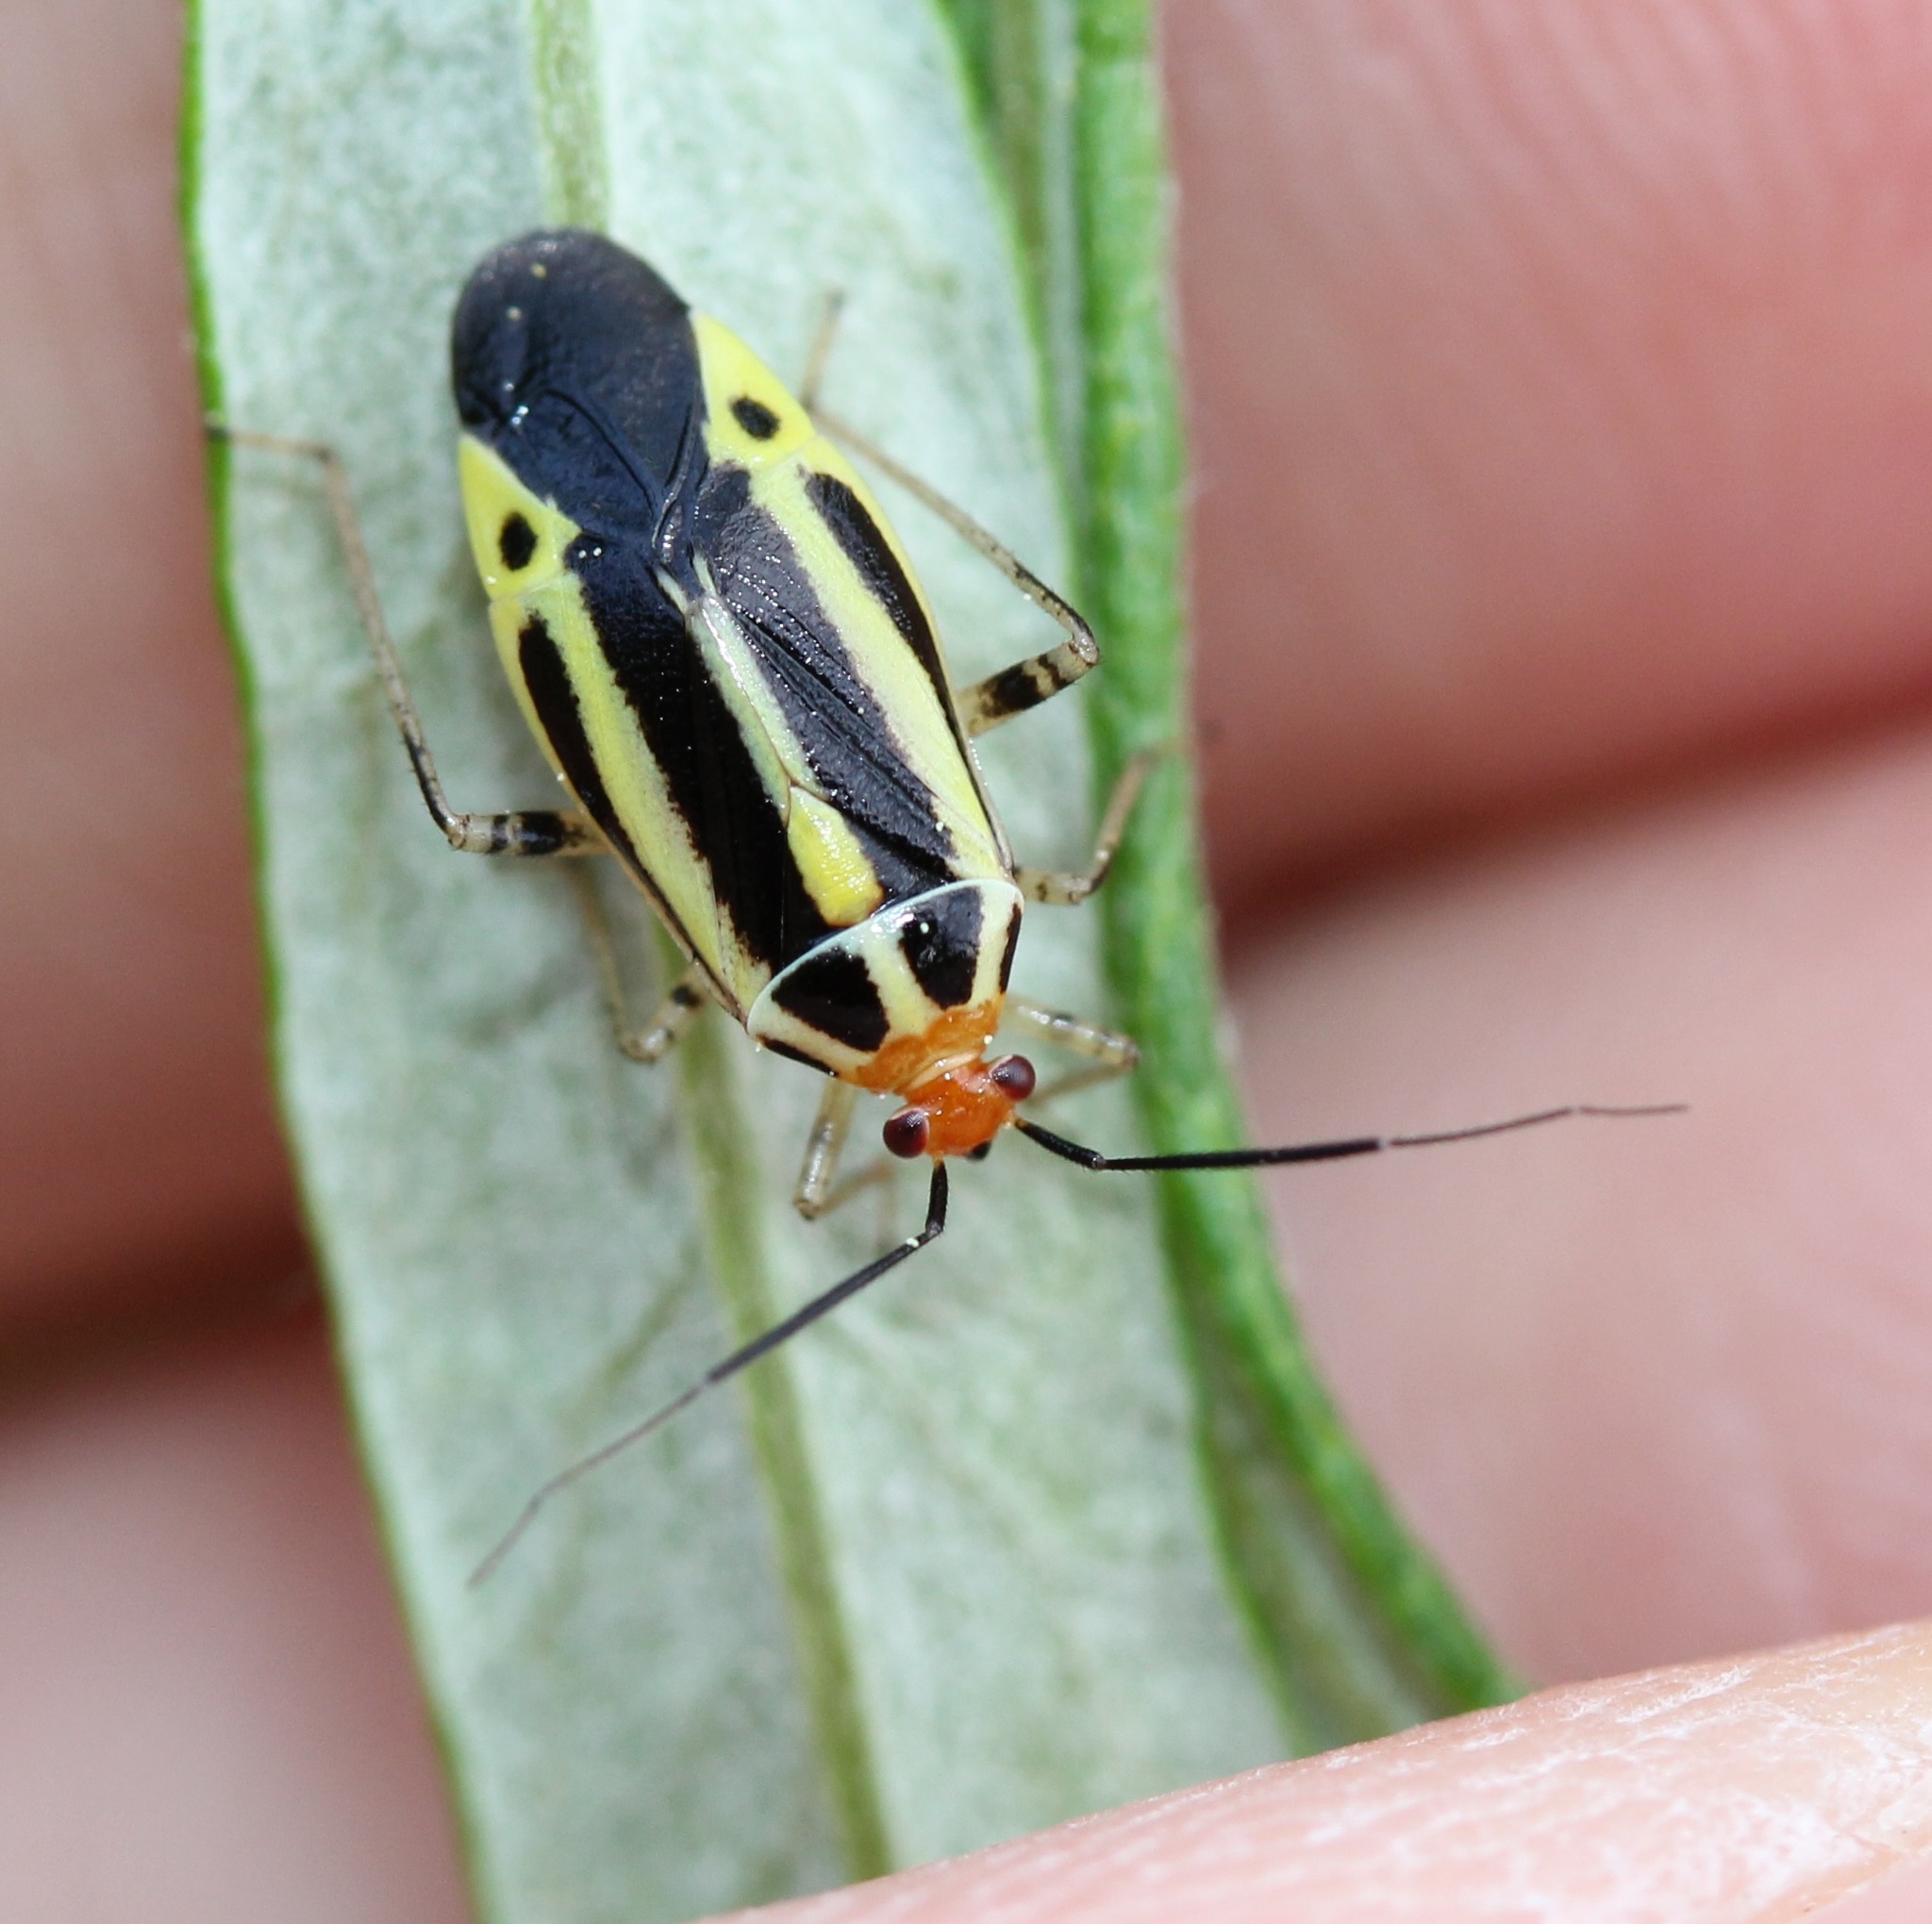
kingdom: Animalia
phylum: Arthropoda
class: Insecta
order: Hemiptera
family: Miridae
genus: Poecilocapsus
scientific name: Poecilocapsus lineatus
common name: Four-lined plant bug
